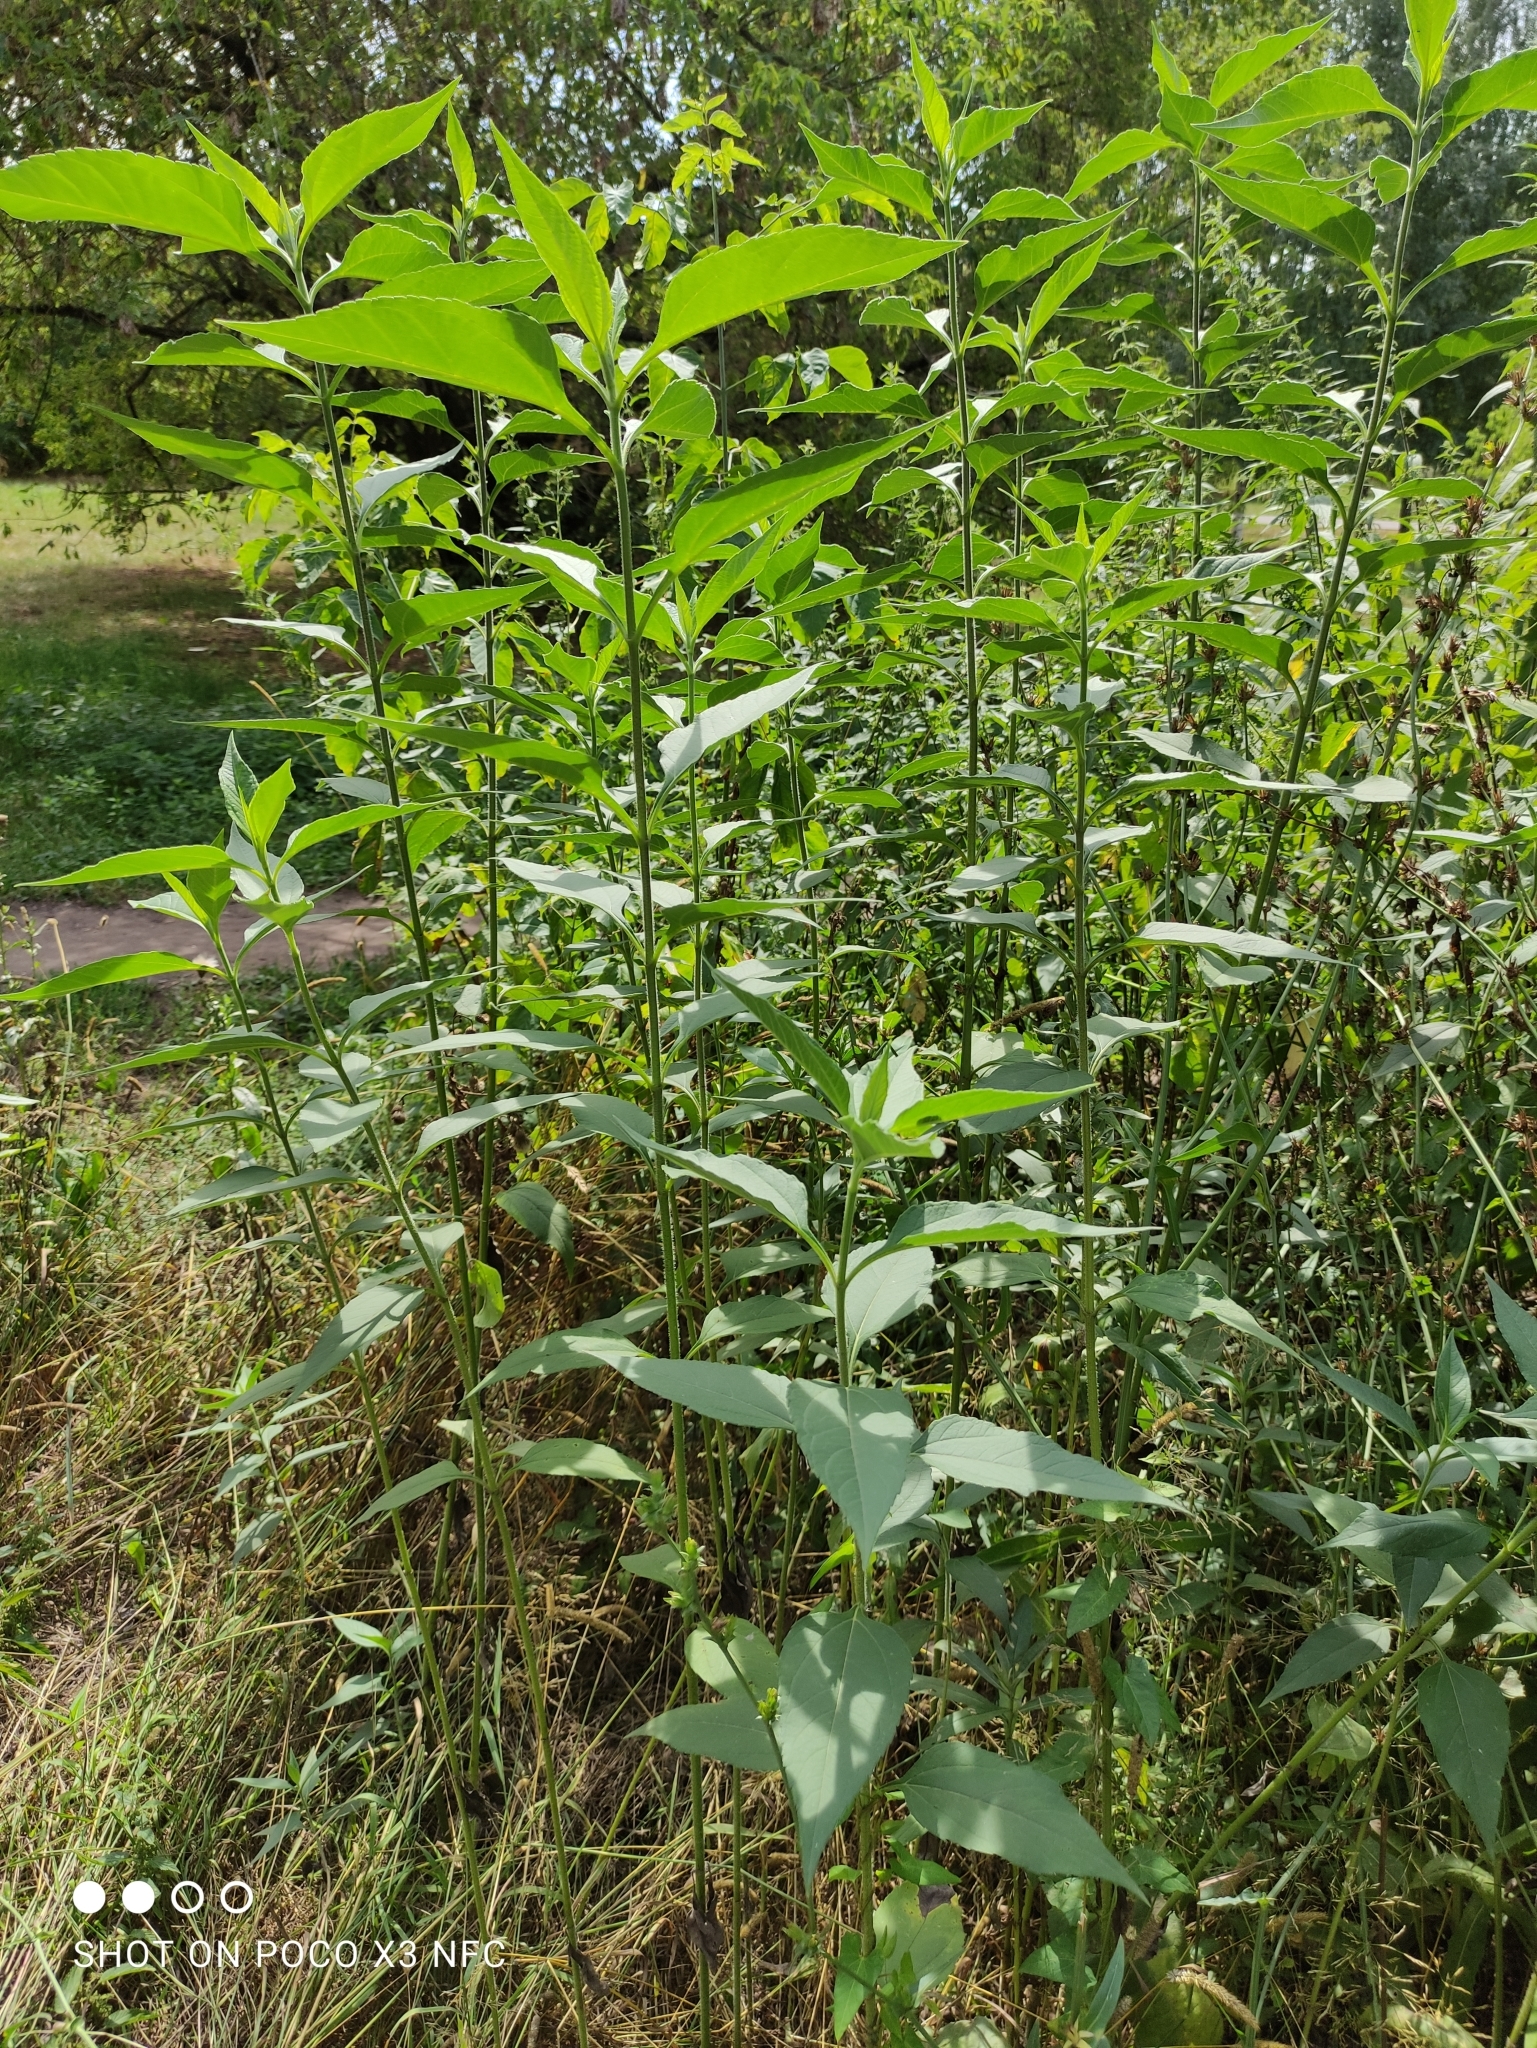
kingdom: Plantae
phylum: Tracheophyta
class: Magnoliopsida
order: Asterales
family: Asteraceae
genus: Helianthus
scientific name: Helianthus tuberosus
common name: Jerusalem artichoke
